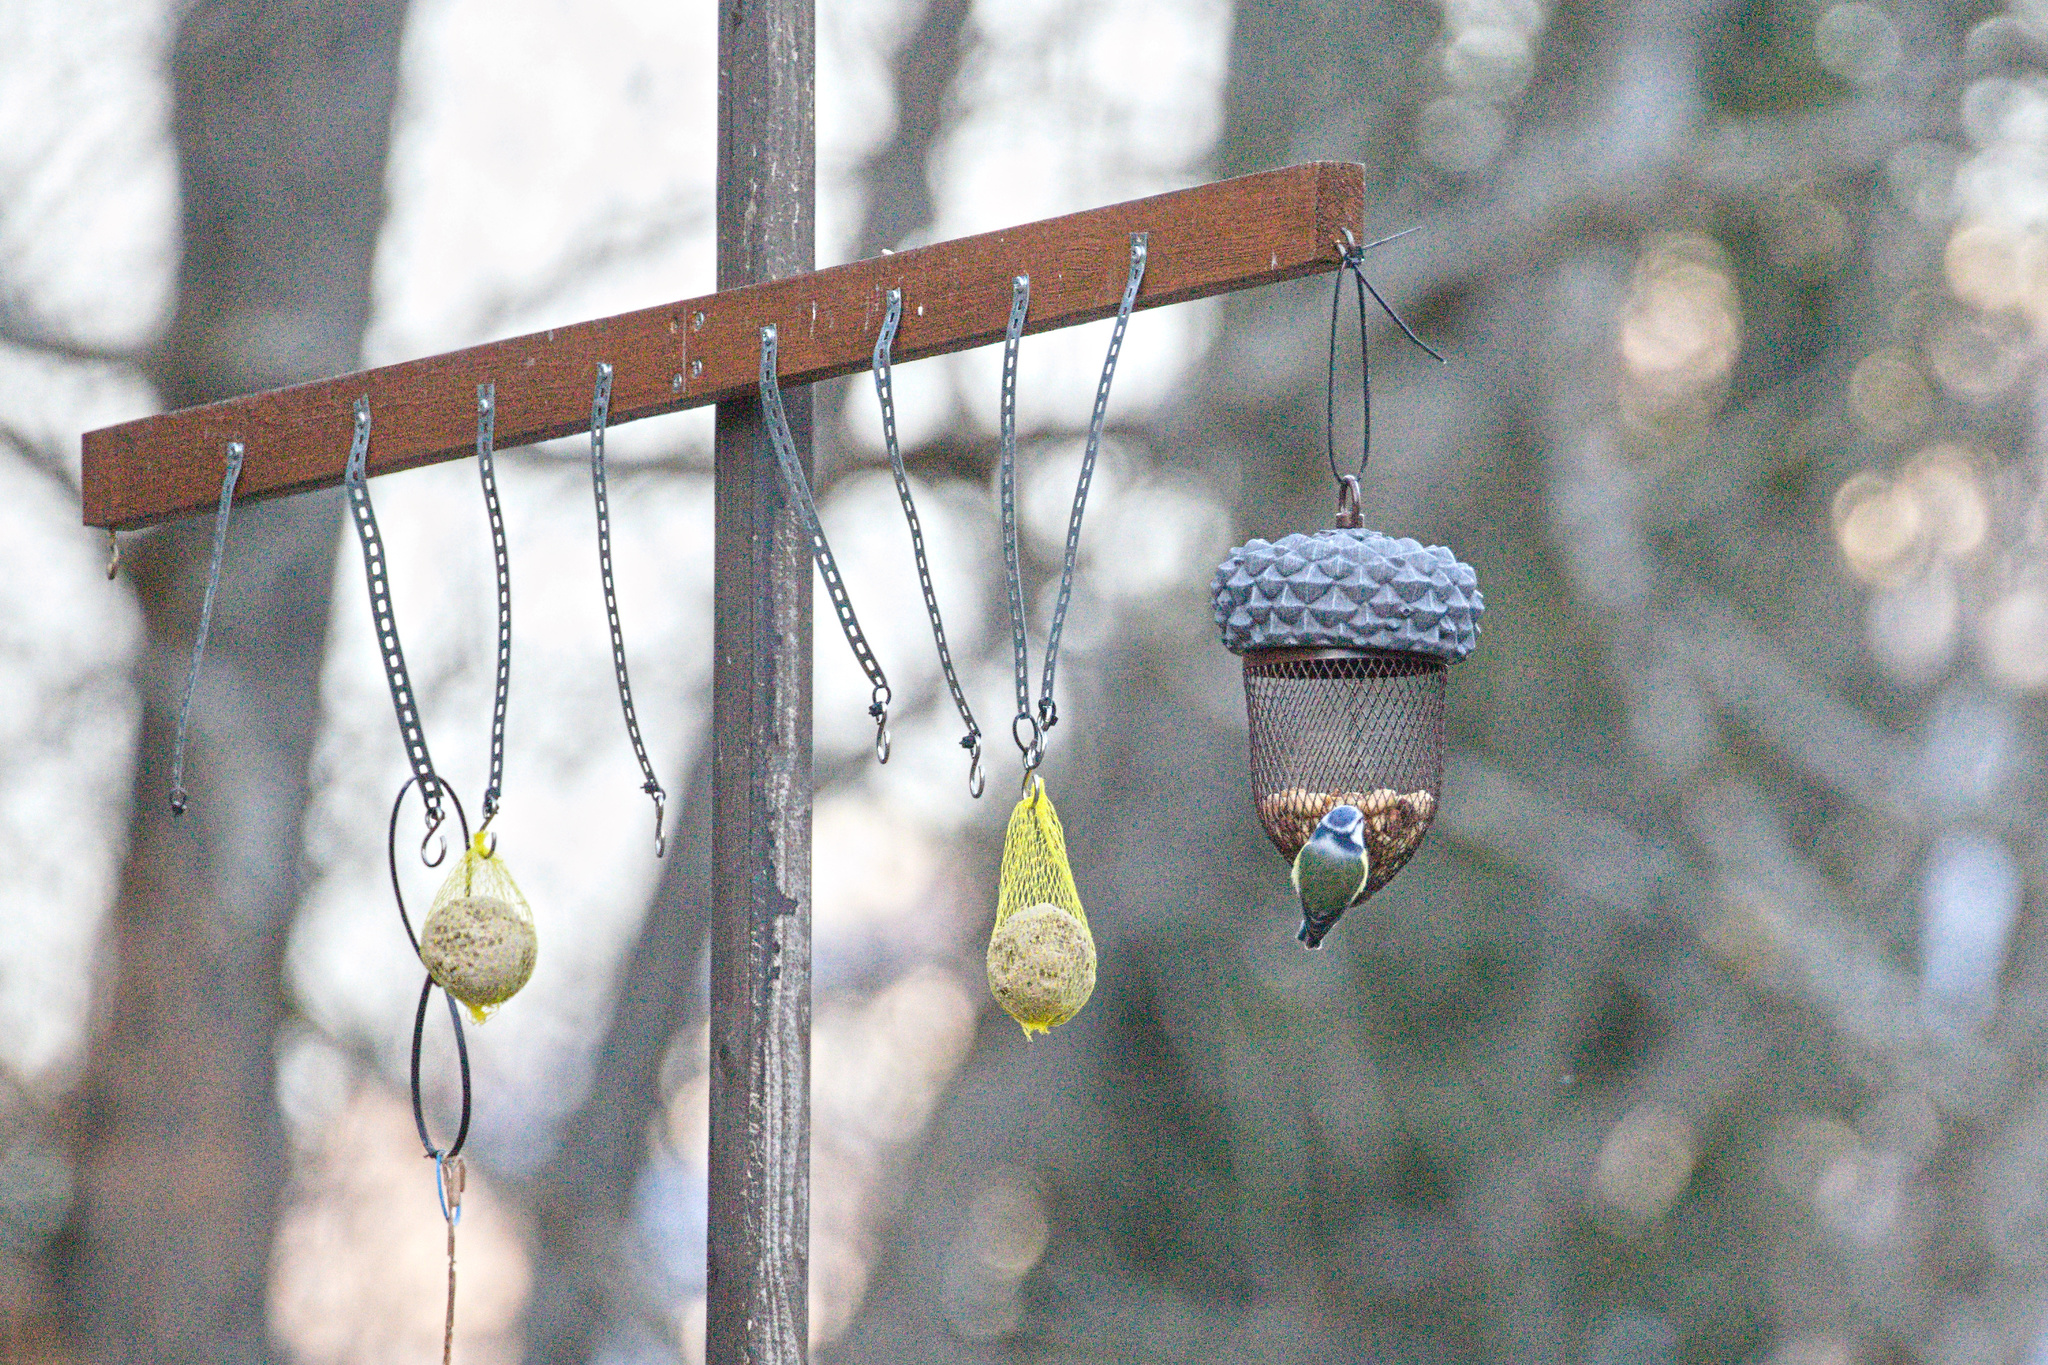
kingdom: Animalia
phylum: Chordata
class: Aves
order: Passeriformes
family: Paridae
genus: Cyanistes
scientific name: Cyanistes caeruleus
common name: Eurasian blue tit
